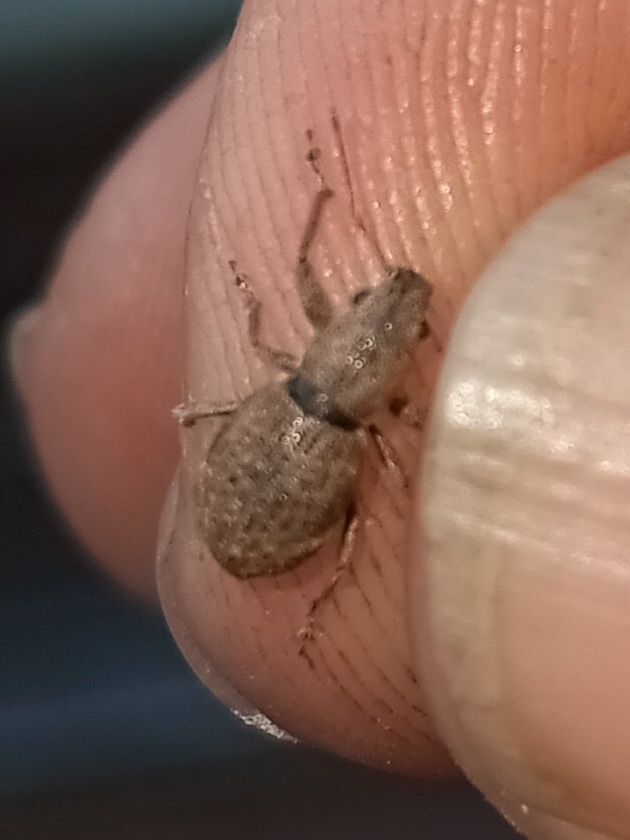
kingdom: Animalia
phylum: Arthropoda
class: Insecta
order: Coleoptera
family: Curculionidae
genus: Naupactus
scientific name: Naupactus cervinus
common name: Fuller rose beetle
